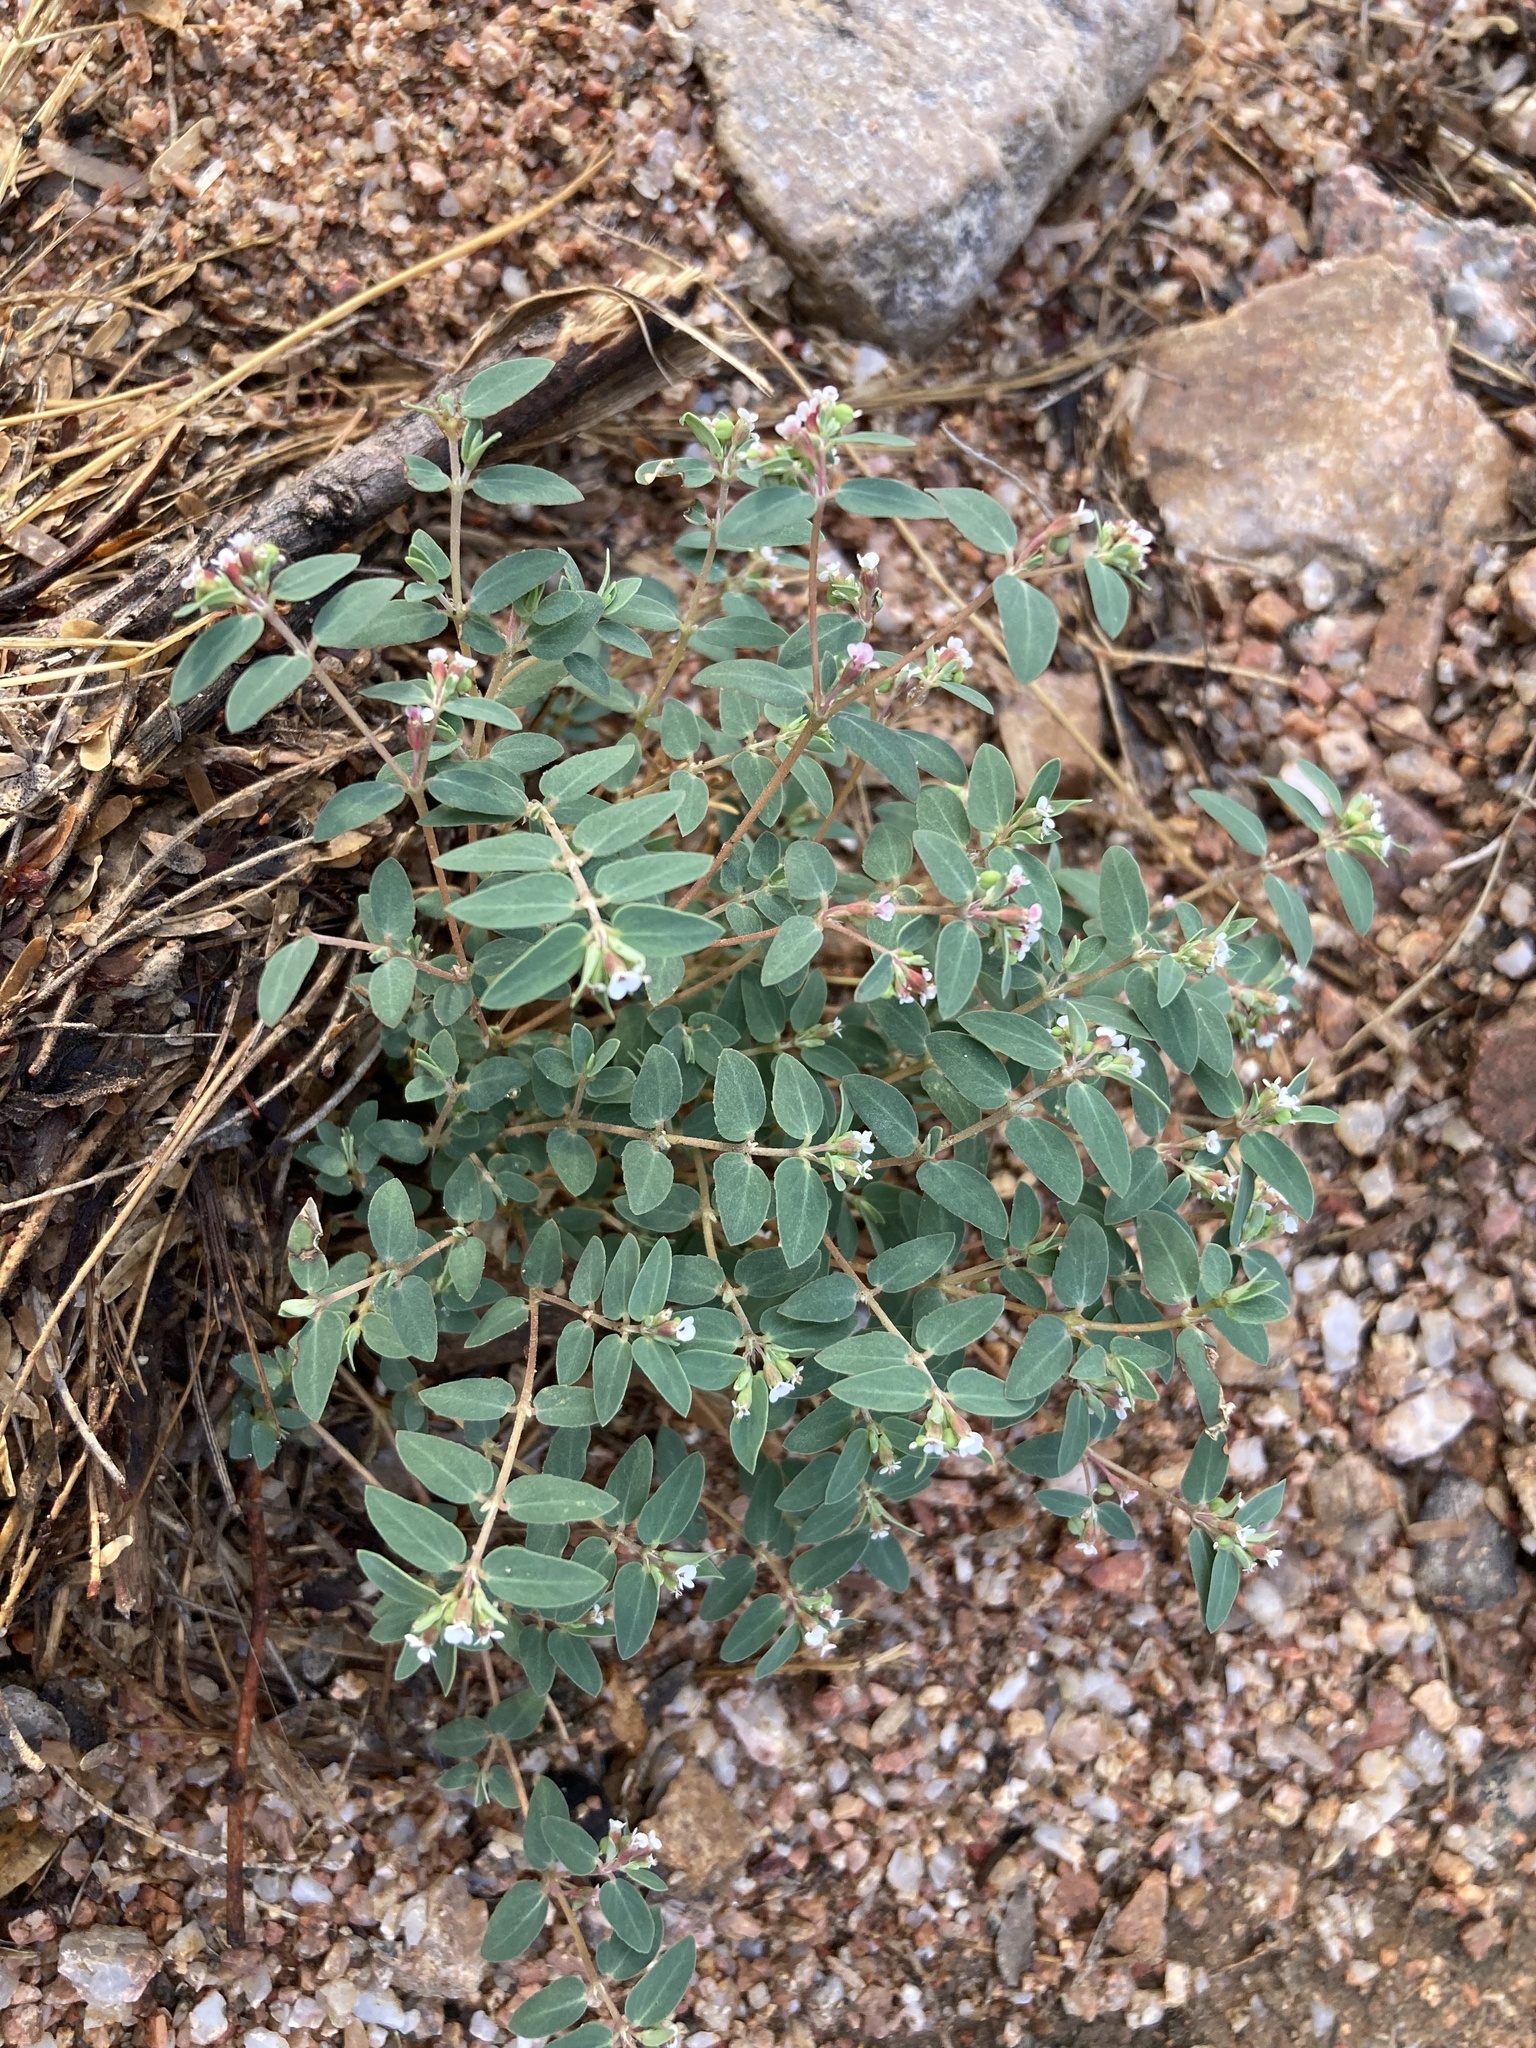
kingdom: Plantae
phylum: Tracheophyta
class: Magnoliopsida
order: Malpighiales
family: Euphorbiaceae
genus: Euphorbia
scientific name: Euphorbia capitellata
